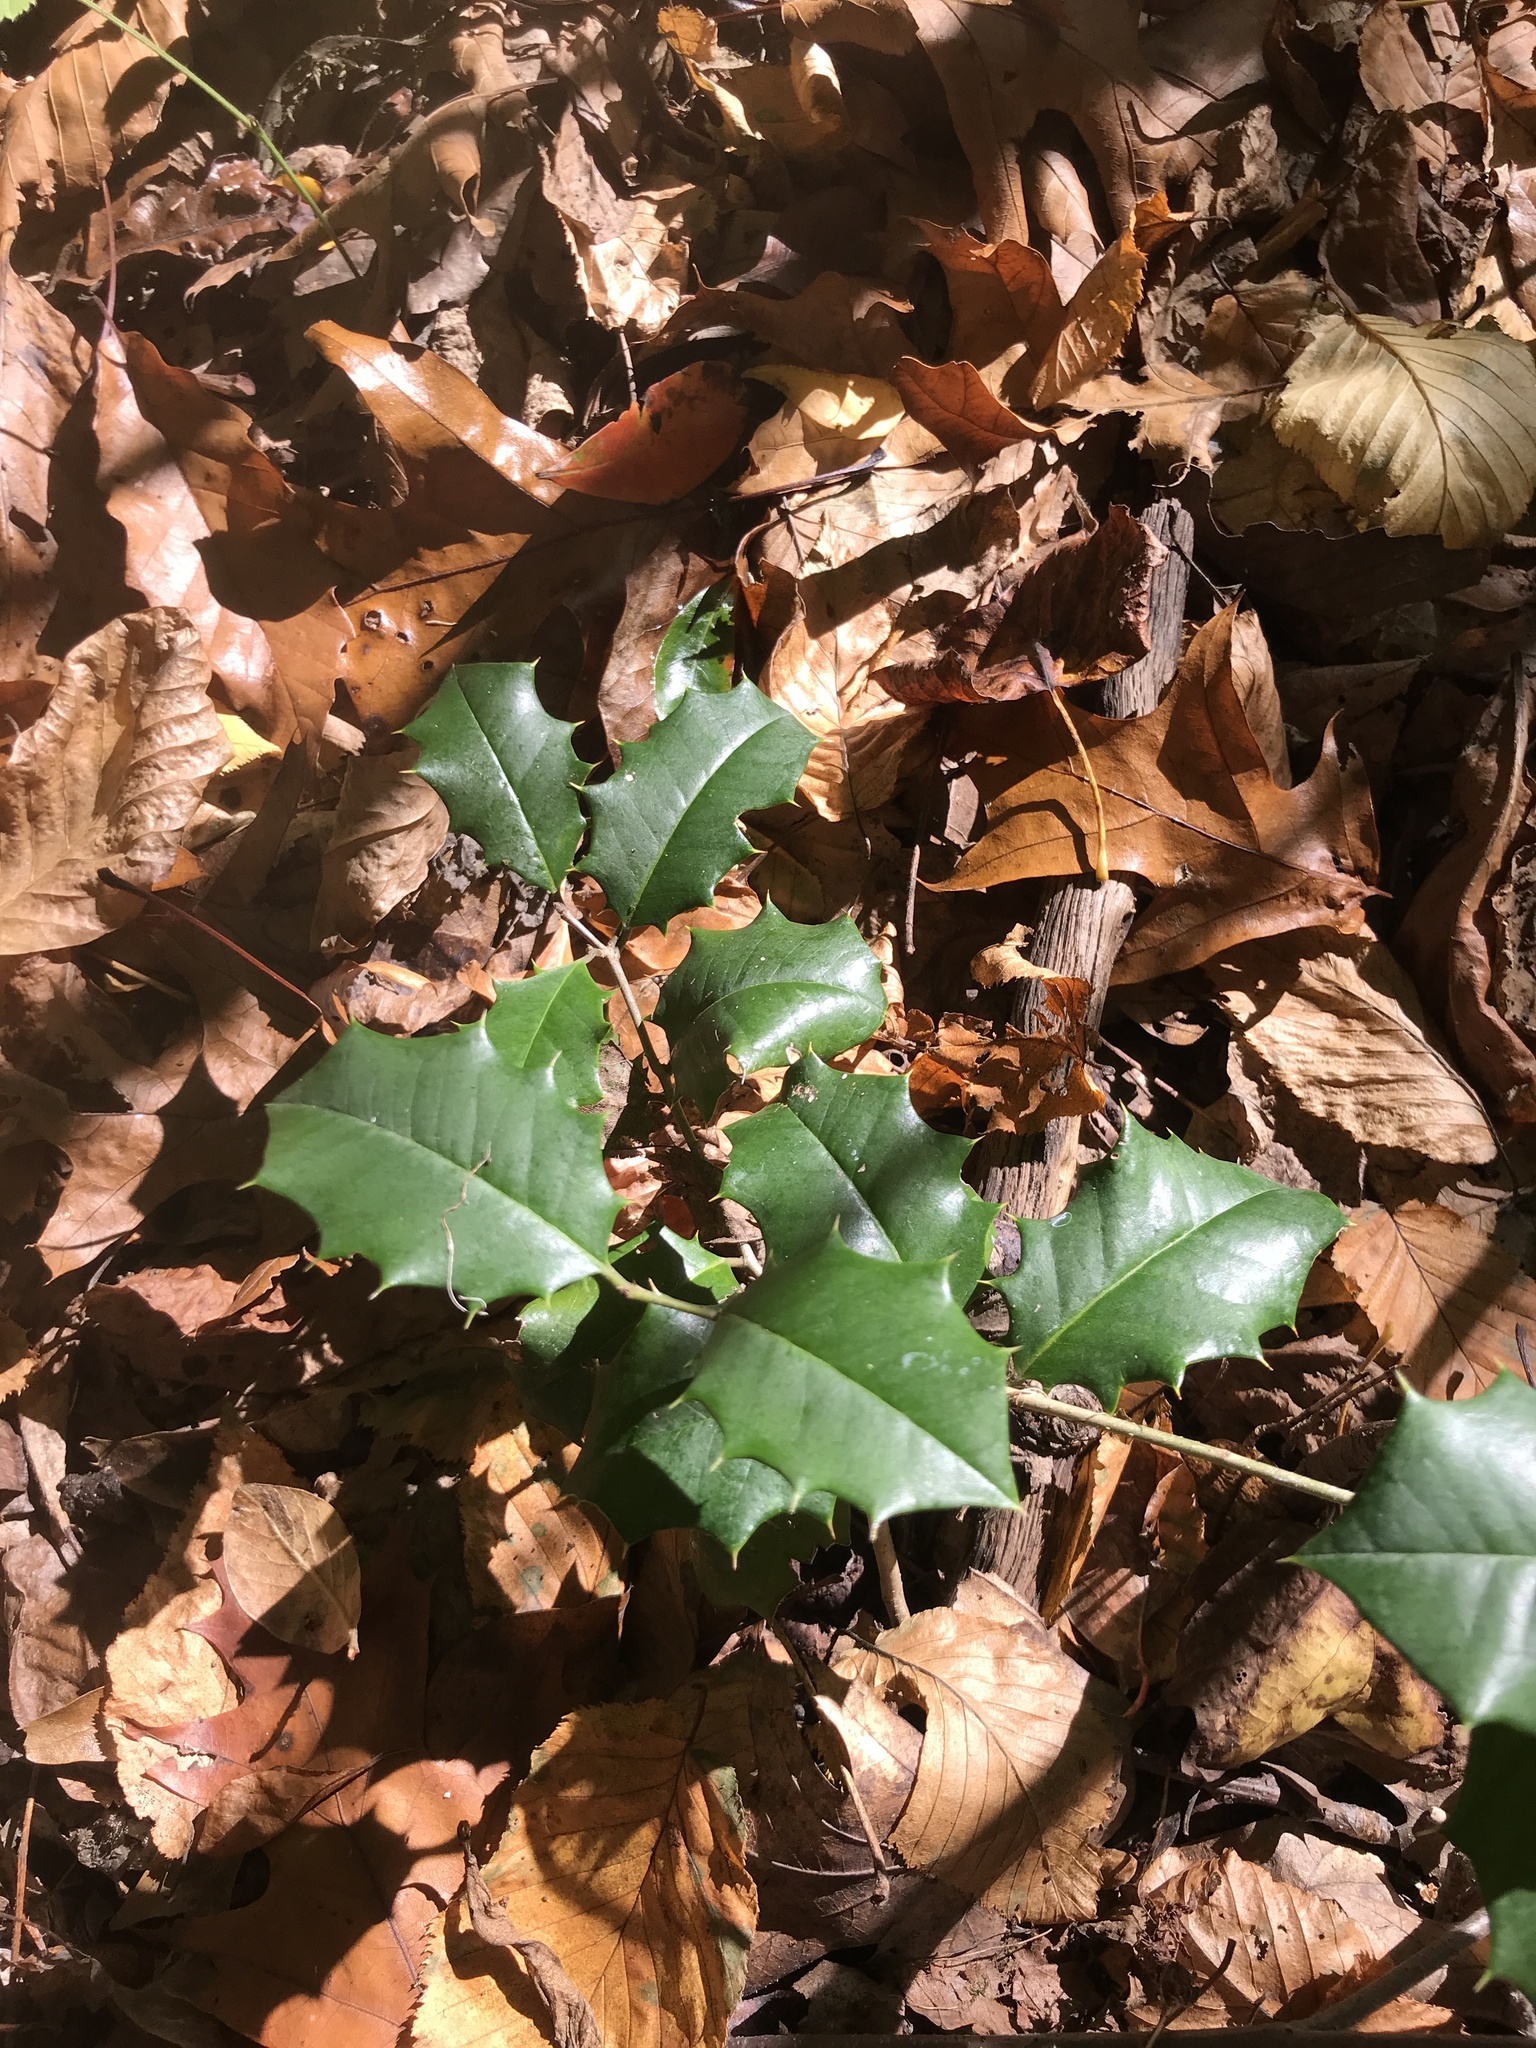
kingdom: Plantae
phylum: Tracheophyta
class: Magnoliopsida
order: Aquifoliales
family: Aquifoliaceae
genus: Ilex
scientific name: Ilex opaca
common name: American holly
